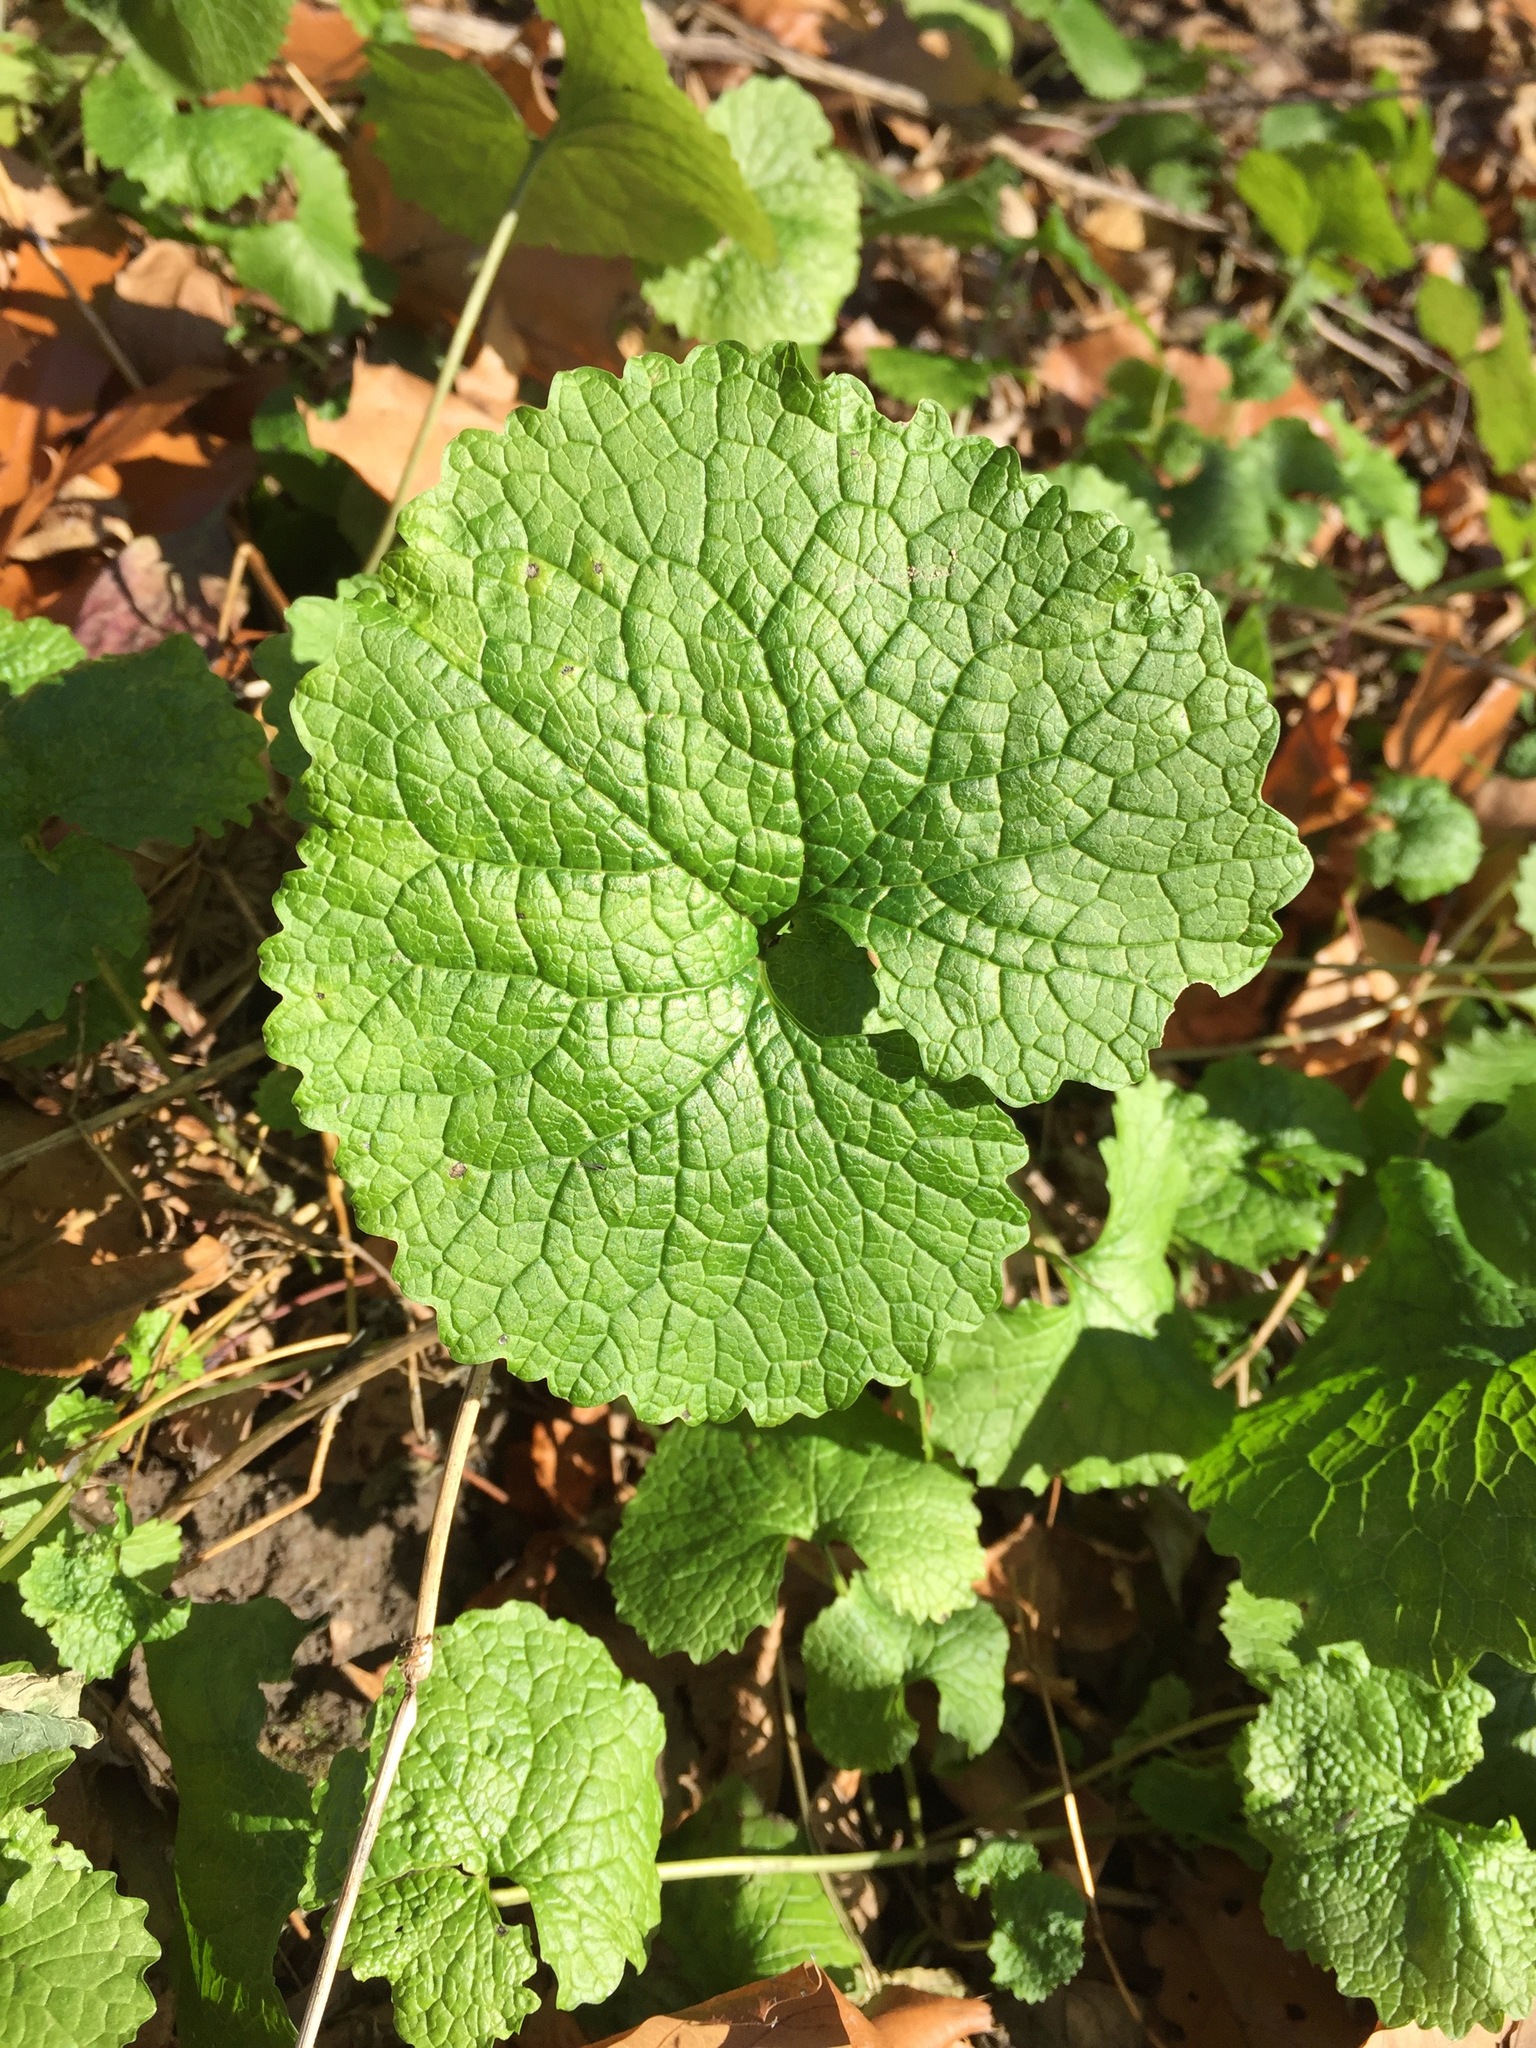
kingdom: Plantae
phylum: Tracheophyta
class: Magnoliopsida
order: Brassicales
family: Brassicaceae
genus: Alliaria
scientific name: Alliaria petiolata
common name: Garlic mustard
